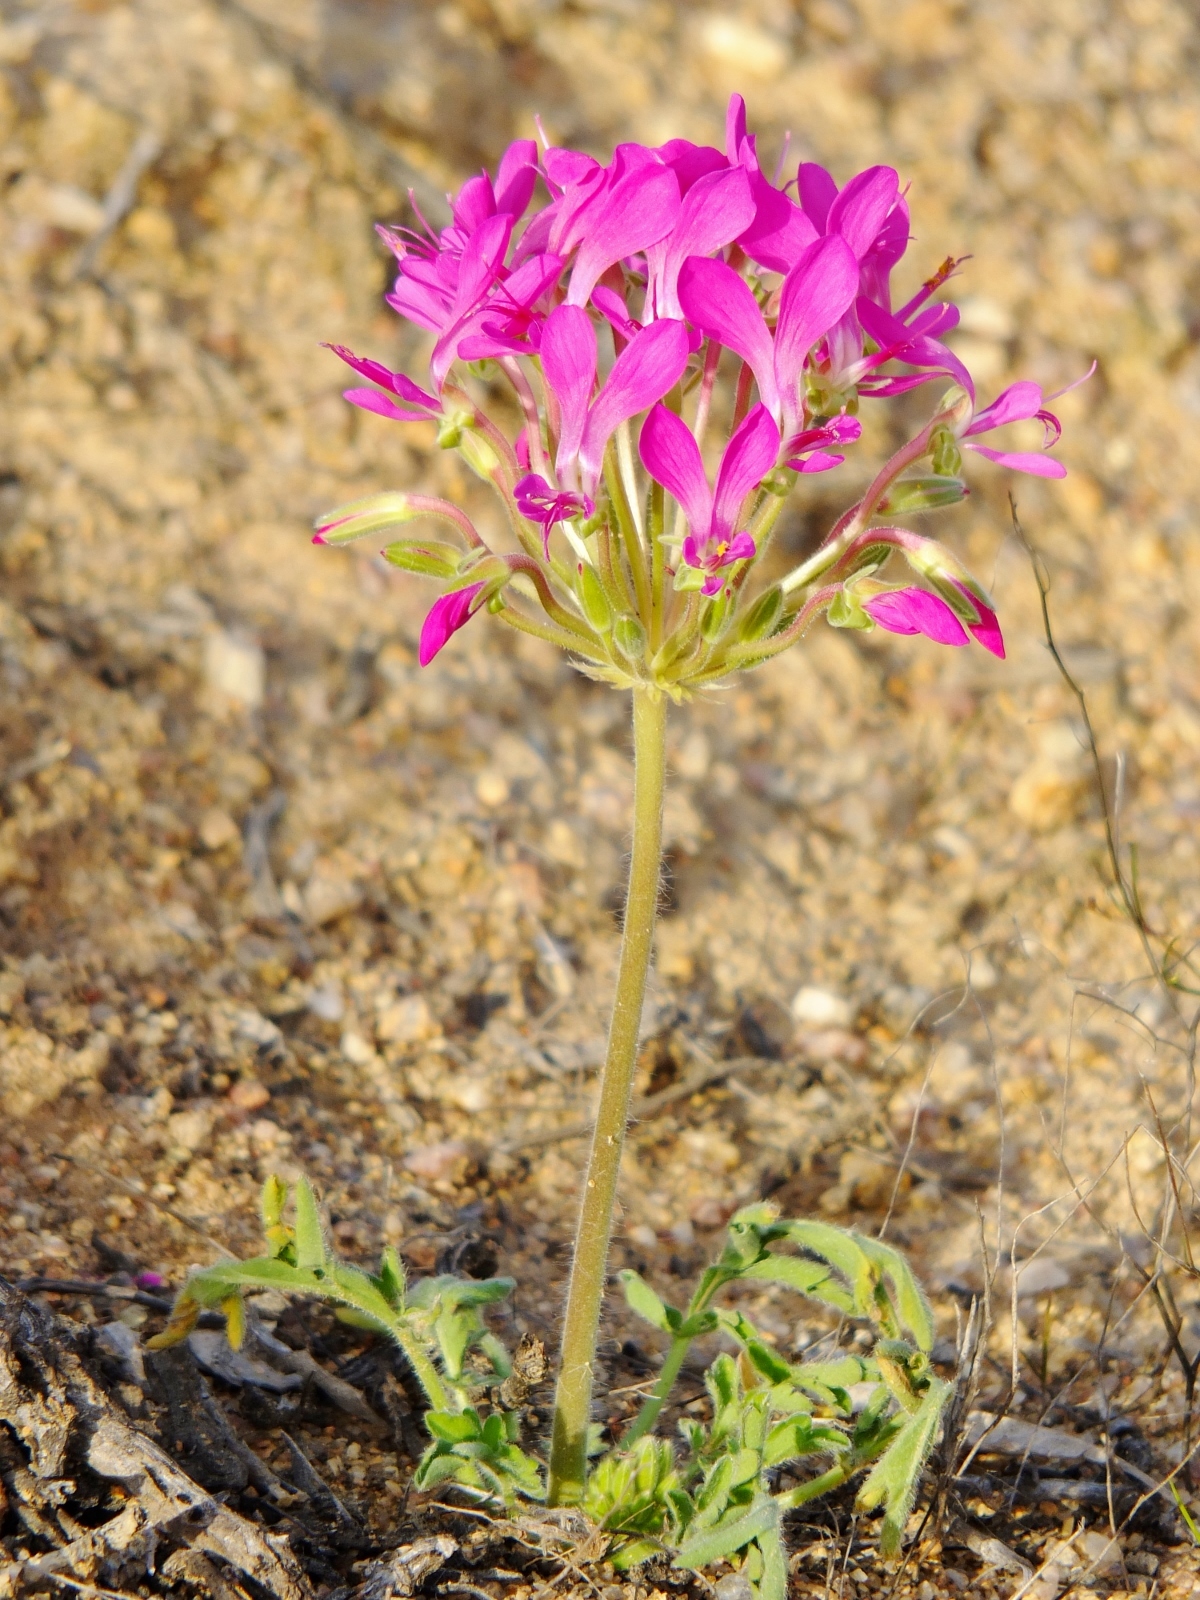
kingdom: Plantae
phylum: Tracheophyta
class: Magnoliopsida
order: Geraniales
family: Geraniaceae
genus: Pelargonium
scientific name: Pelargonium incrassatum
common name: Namaqualand beauty
